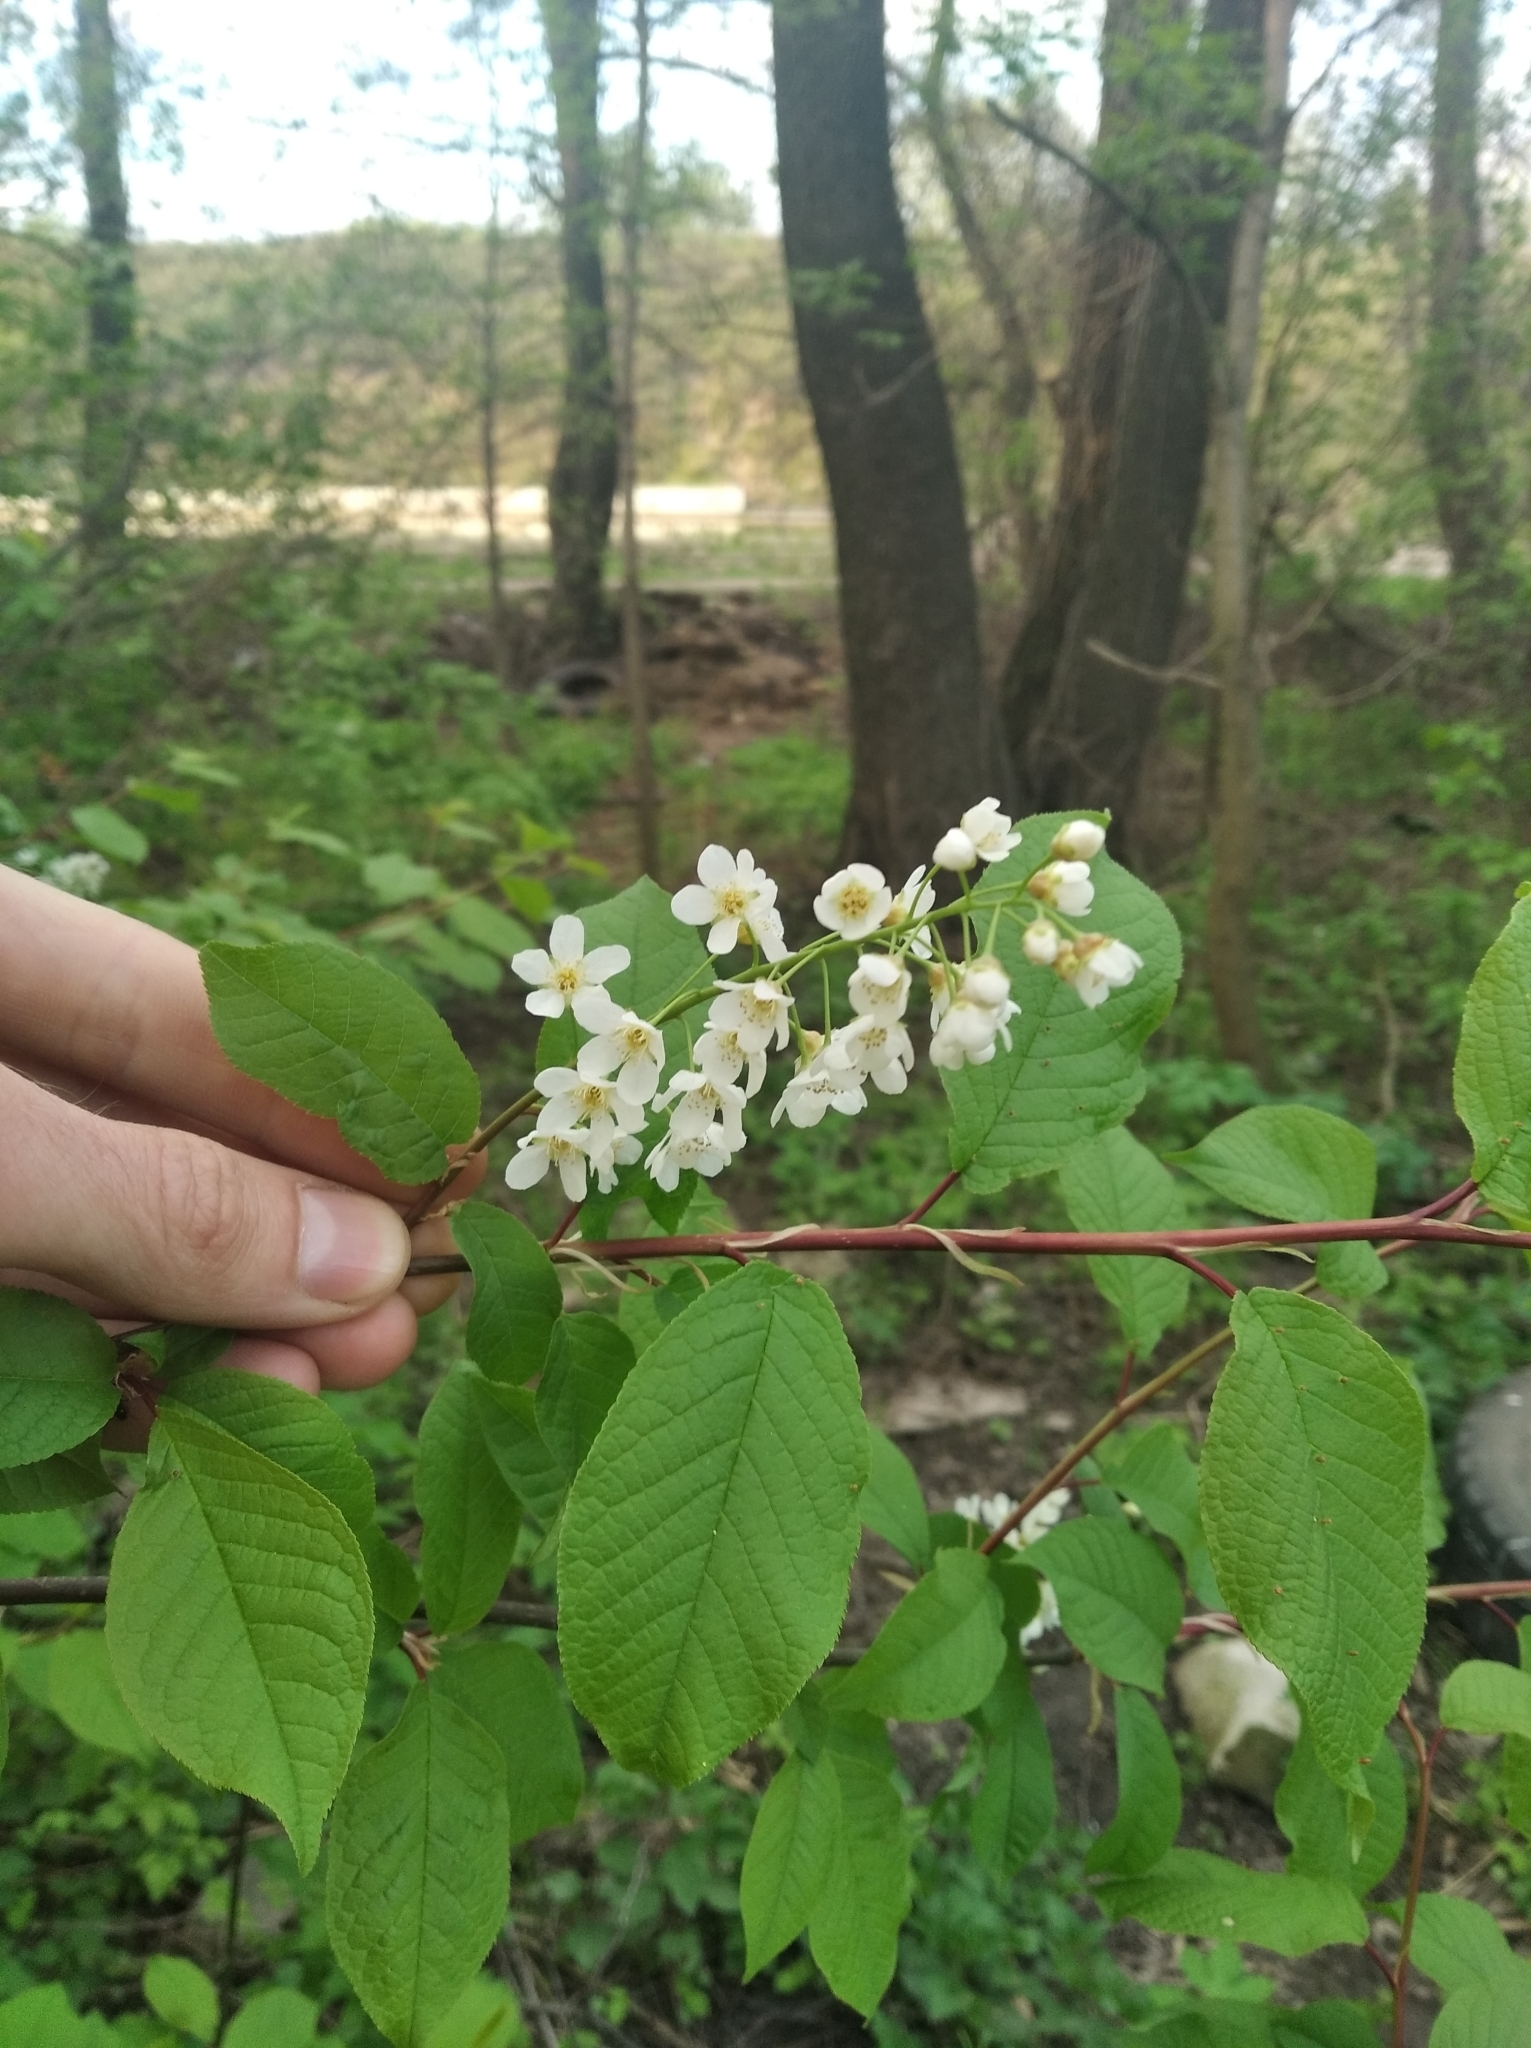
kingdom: Plantae
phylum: Tracheophyta
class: Magnoliopsida
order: Rosales
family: Rosaceae
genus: Prunus
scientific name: Prunus padus
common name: Bird cherry
